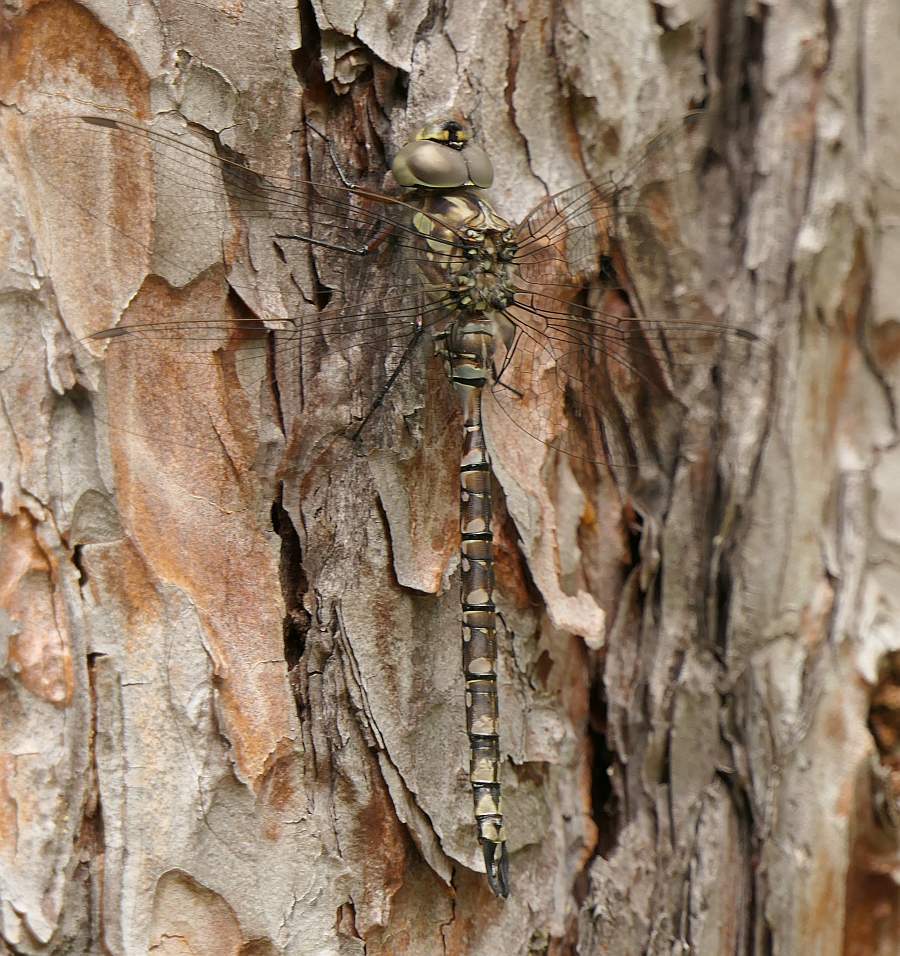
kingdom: Animalia
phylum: Arthropoda
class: Insecta
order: Odonata
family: Aeshnidae
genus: Aeshna
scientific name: Aeshna canadensis
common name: Canada darner
